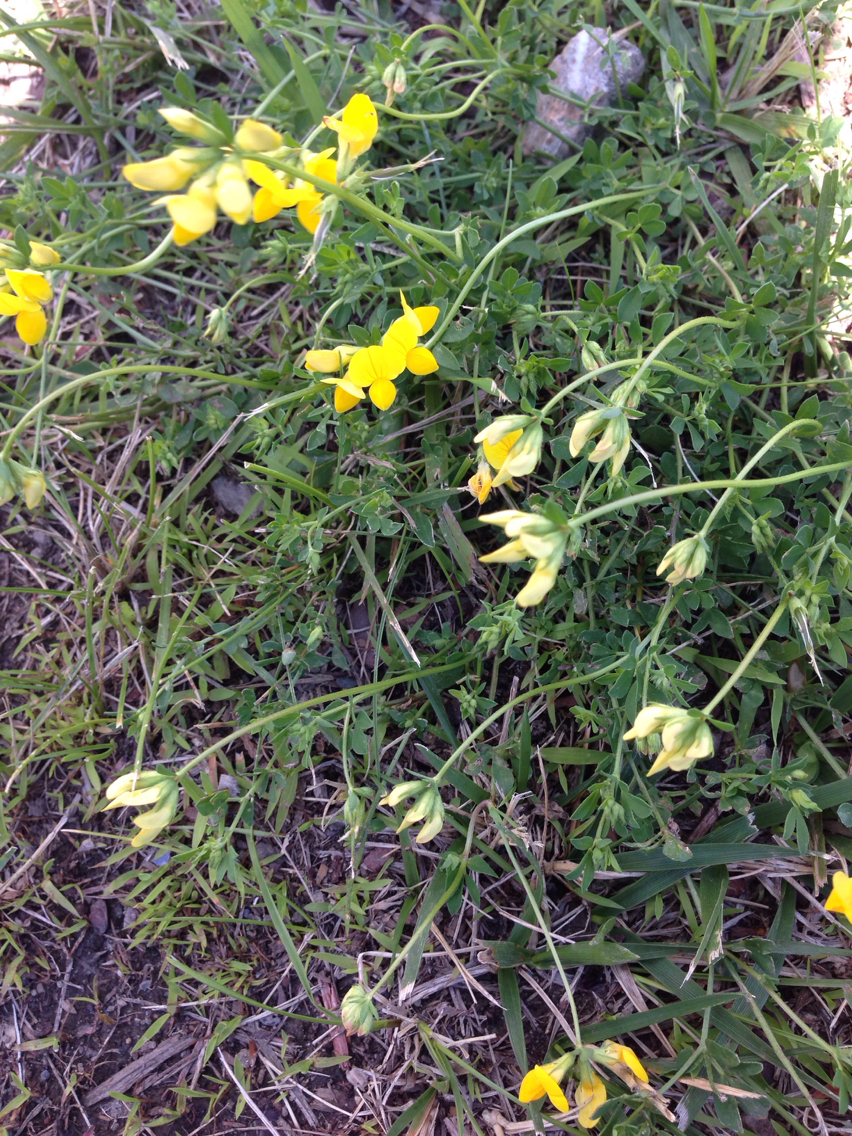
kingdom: Plantae
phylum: Tracheophyta
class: Magnoliopsida
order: Fabales
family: Fabaceae
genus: Lotus
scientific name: Lotus corniculatus
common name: Common bird's-foot-trefoil
